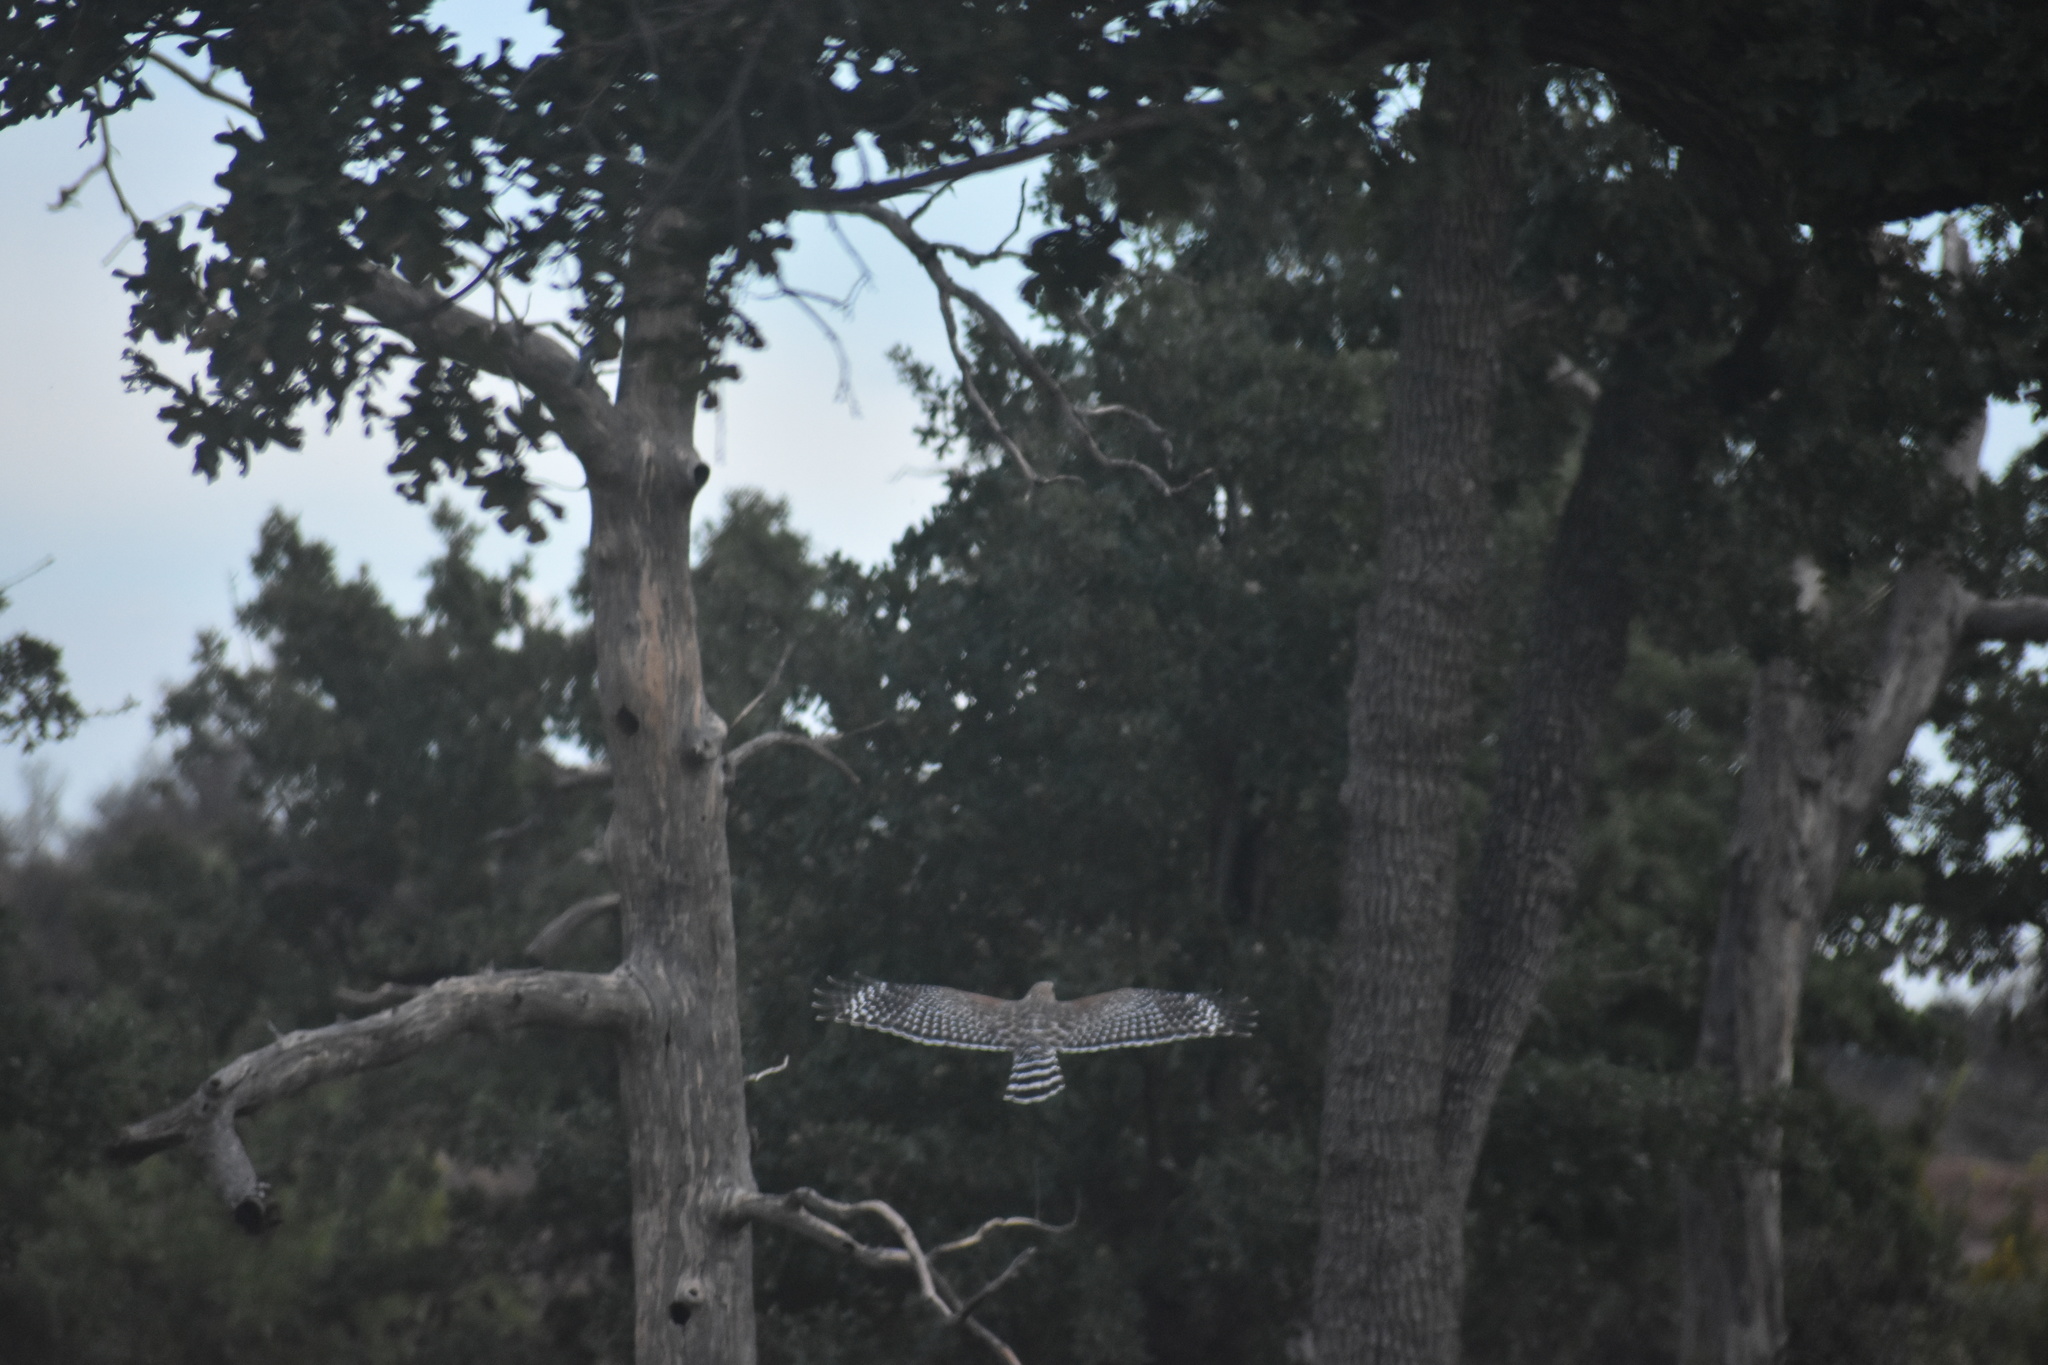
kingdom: Animalia
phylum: Chordata
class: Aves
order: Accipitriformes
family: Accipitridae
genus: Buteo
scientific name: Buteo lineatus
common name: Red-shouldered hawk
